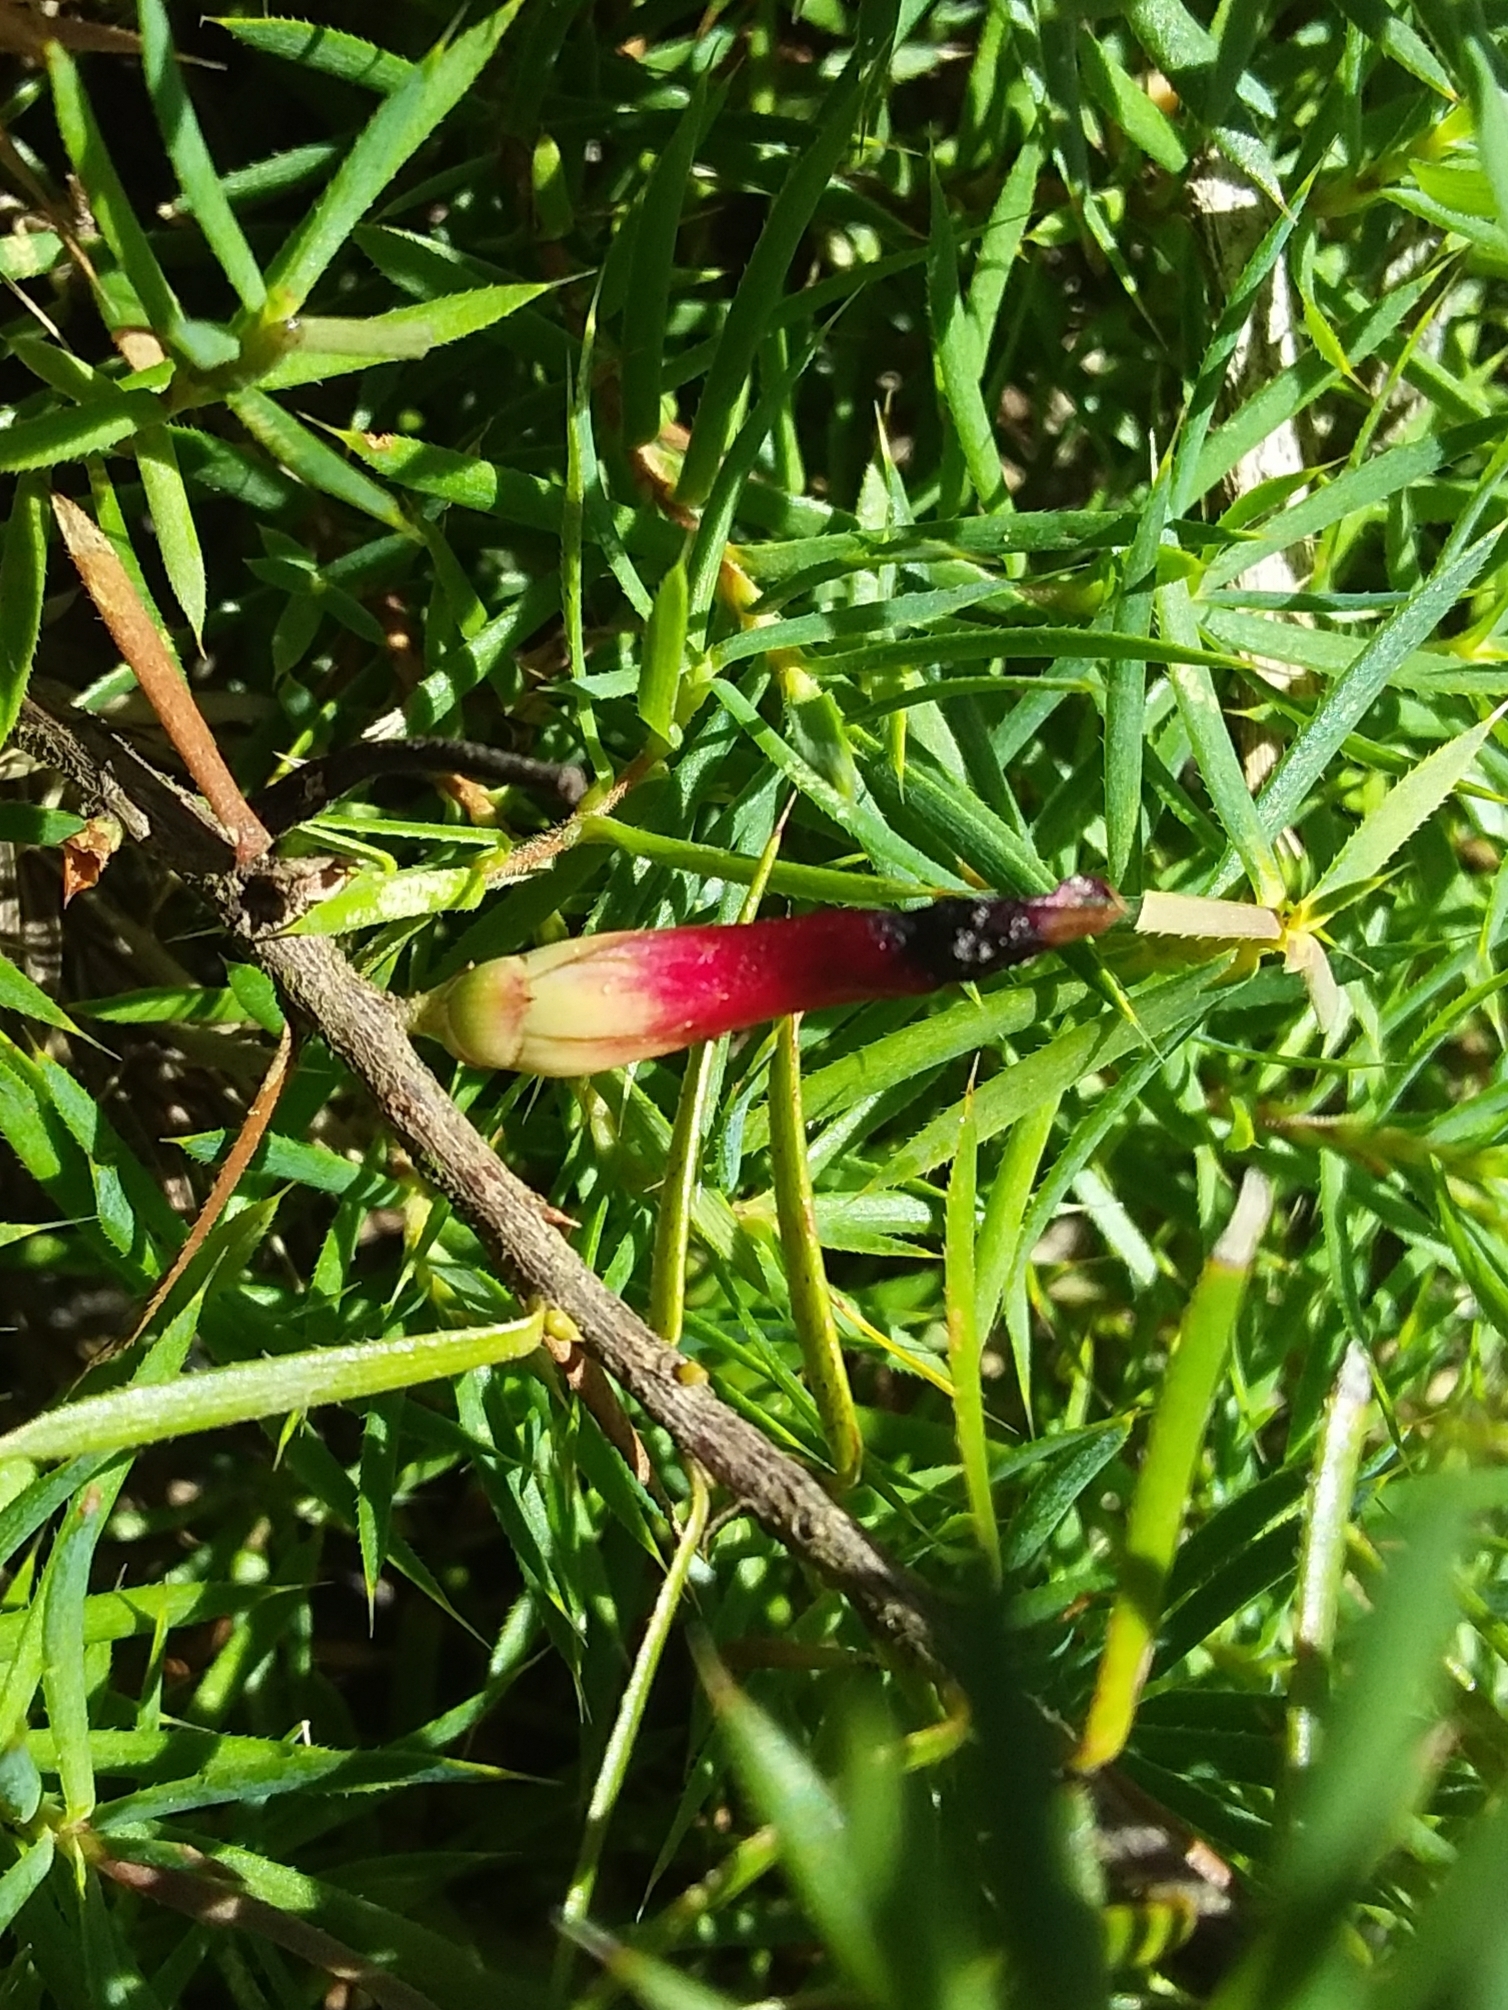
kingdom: Plantae
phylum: Tracheophyta
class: Magnoliopsida
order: Ericales
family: Ericaceae
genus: Styphelia
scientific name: Styphelia humifusa
